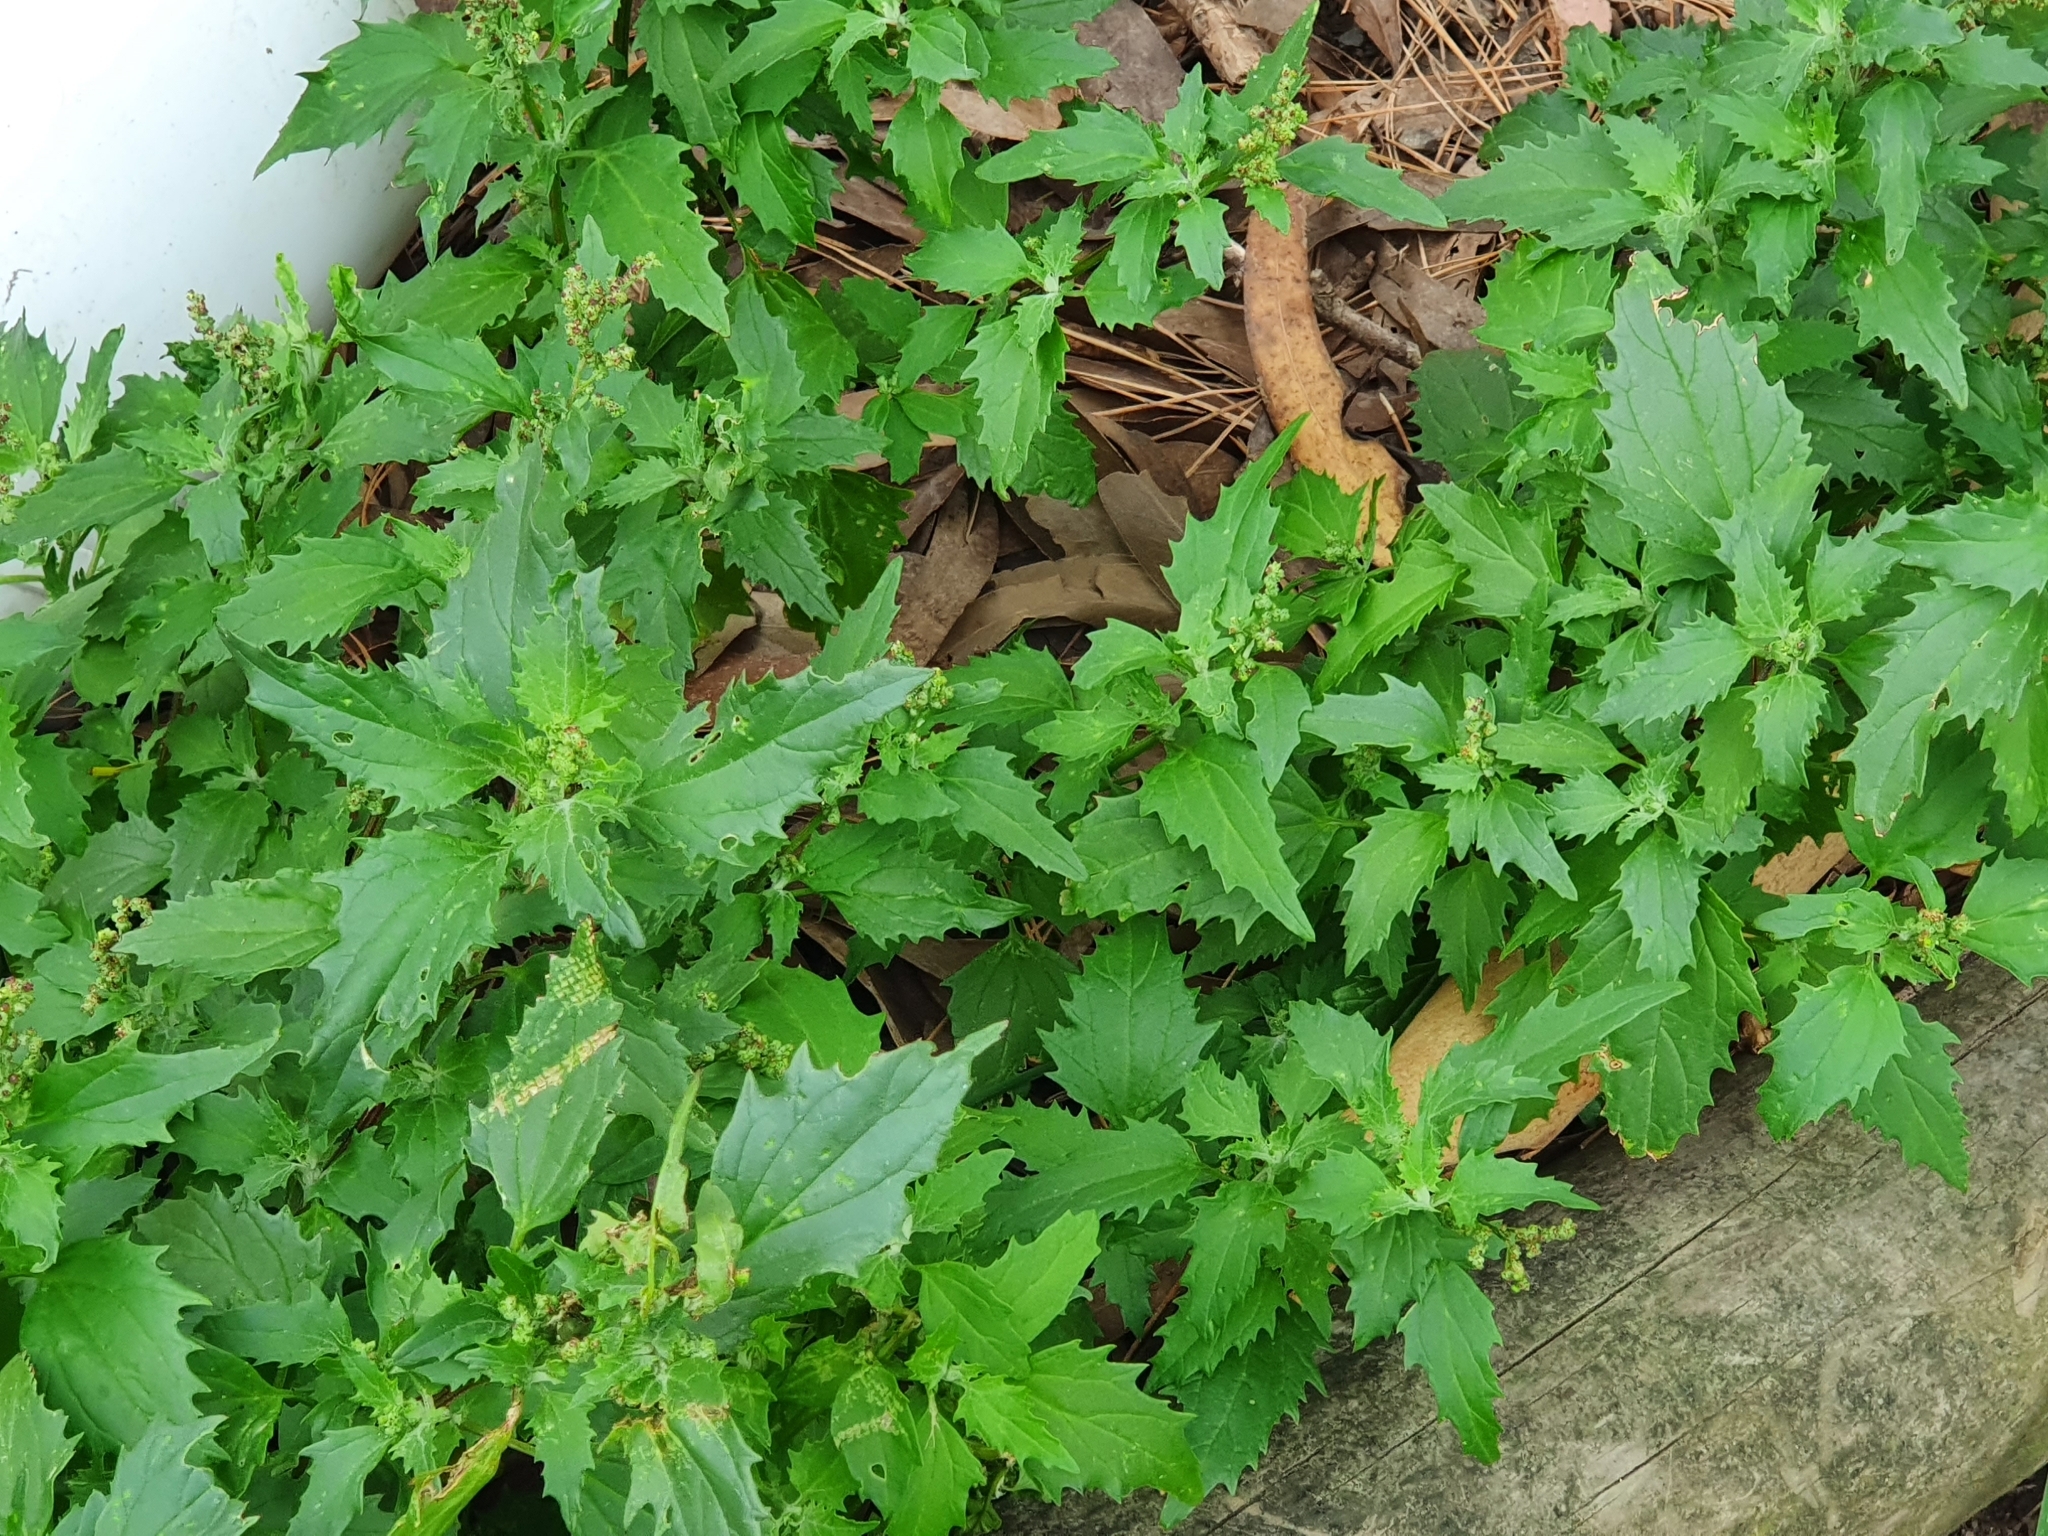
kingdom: Plantae
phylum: Tracheophyta
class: Magnoliopsida
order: Caryophyllales
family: Amaranthaceae
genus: Chenopodiastrum
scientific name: Chenopodiastrum murale
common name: Sowbane
